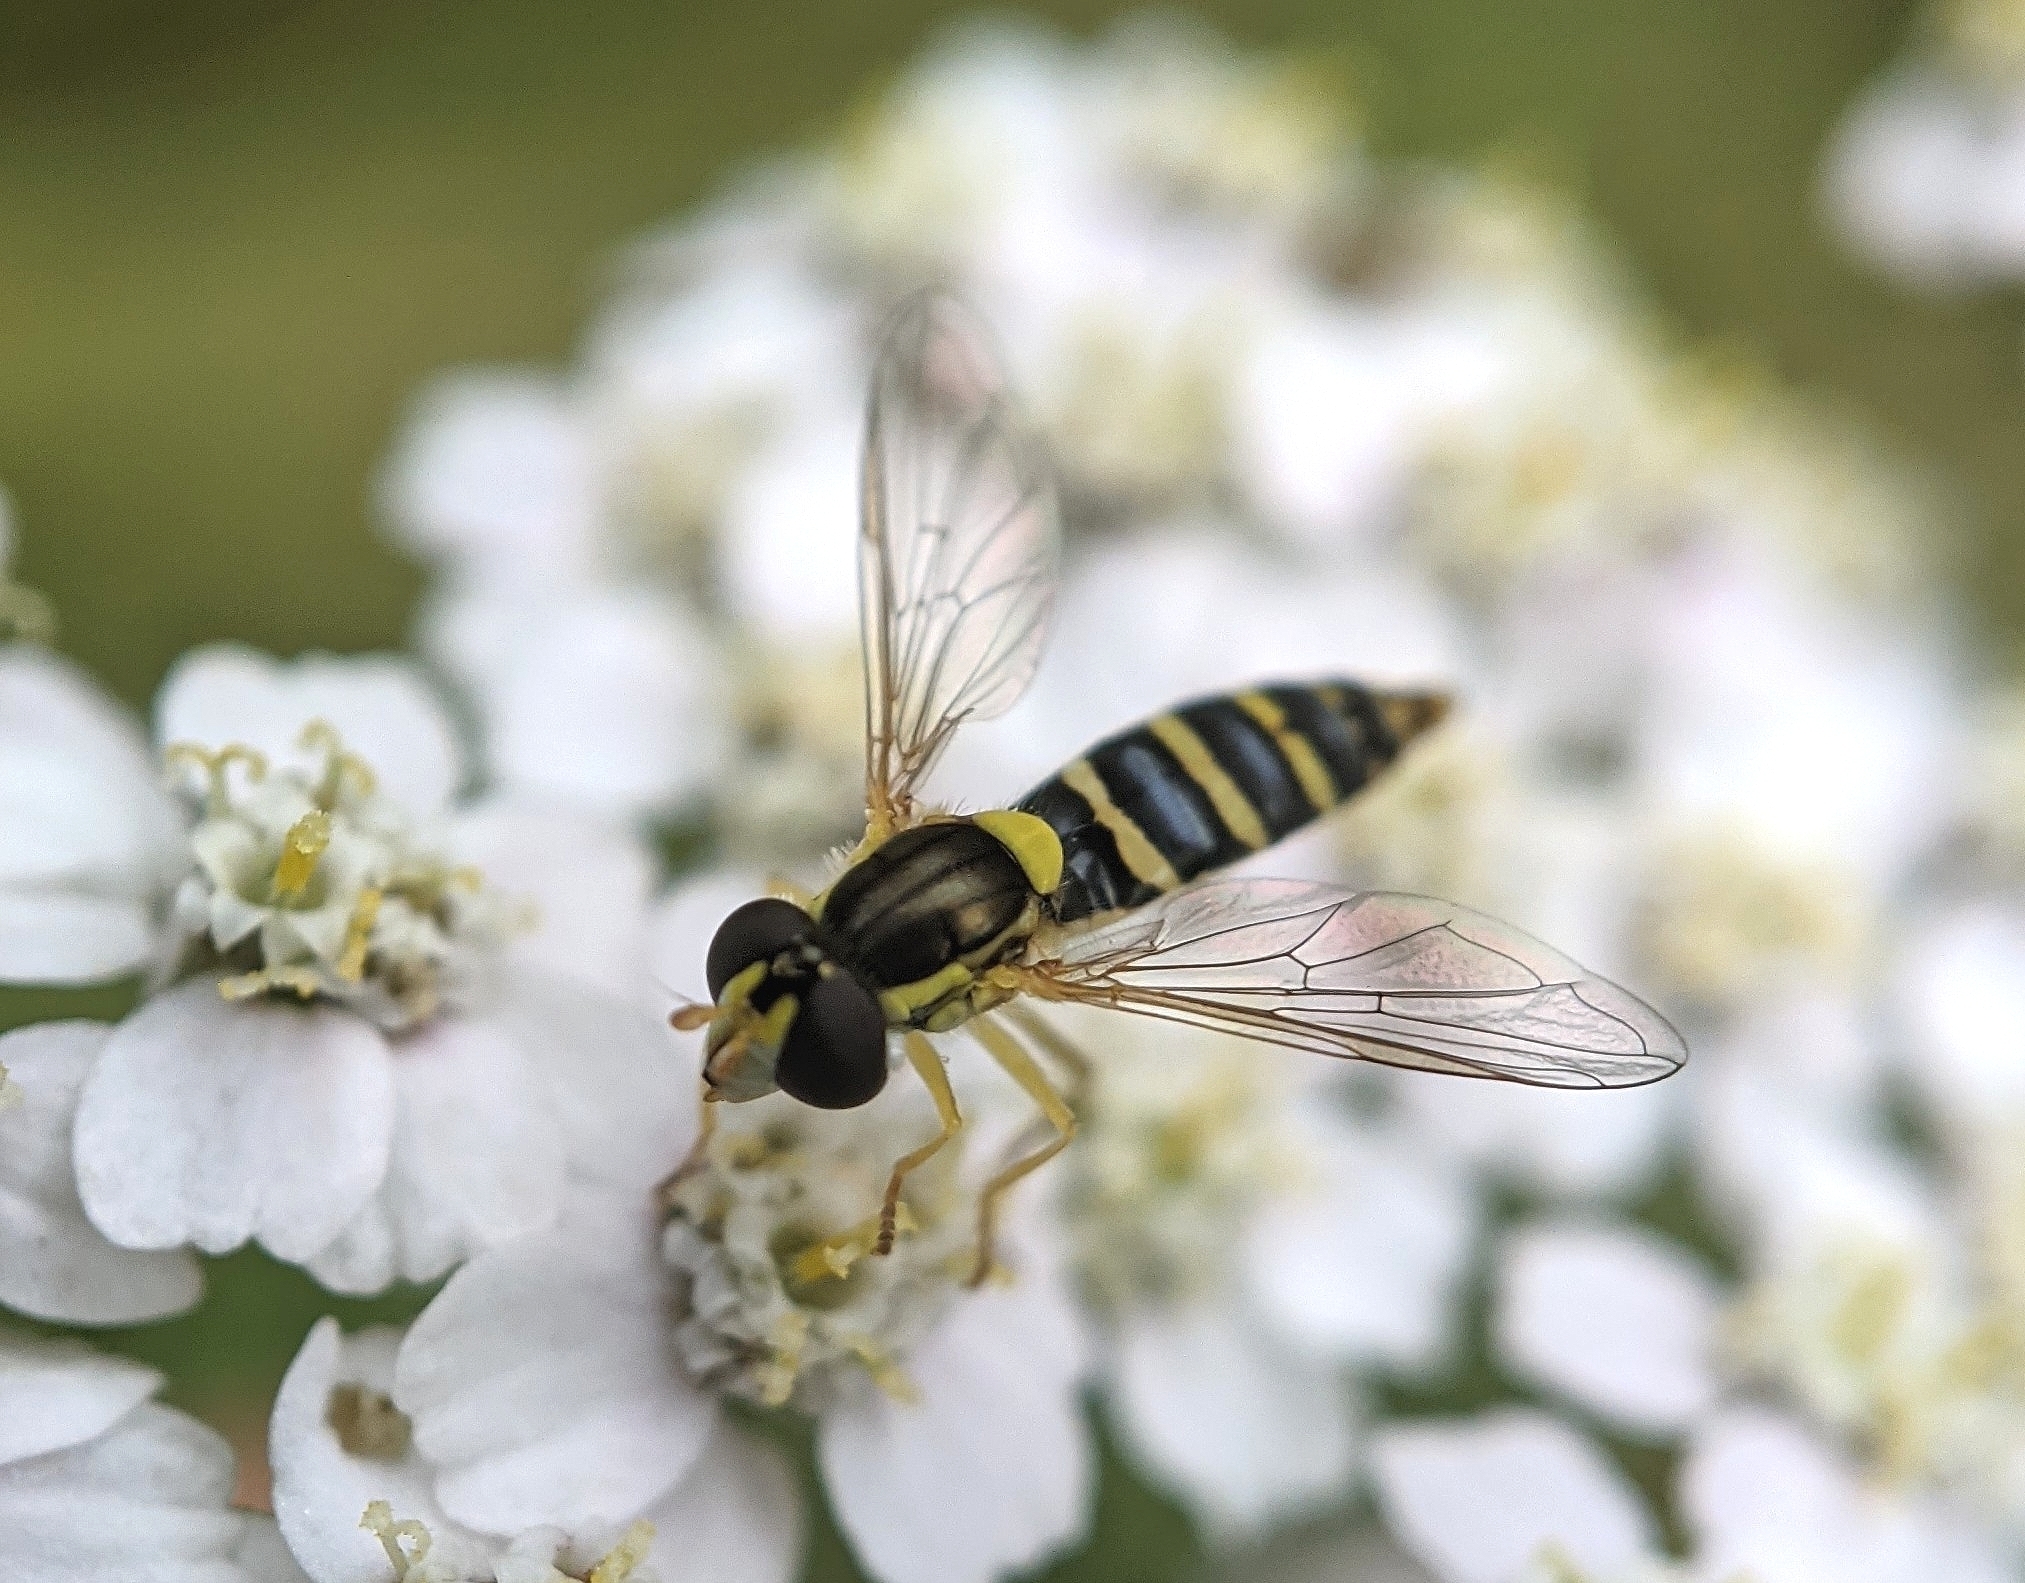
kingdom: Animalia
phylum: Arthropoda
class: Insecta
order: Diptera
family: Syrphidae
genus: Sphaerophoria
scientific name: Sphaerophoria
